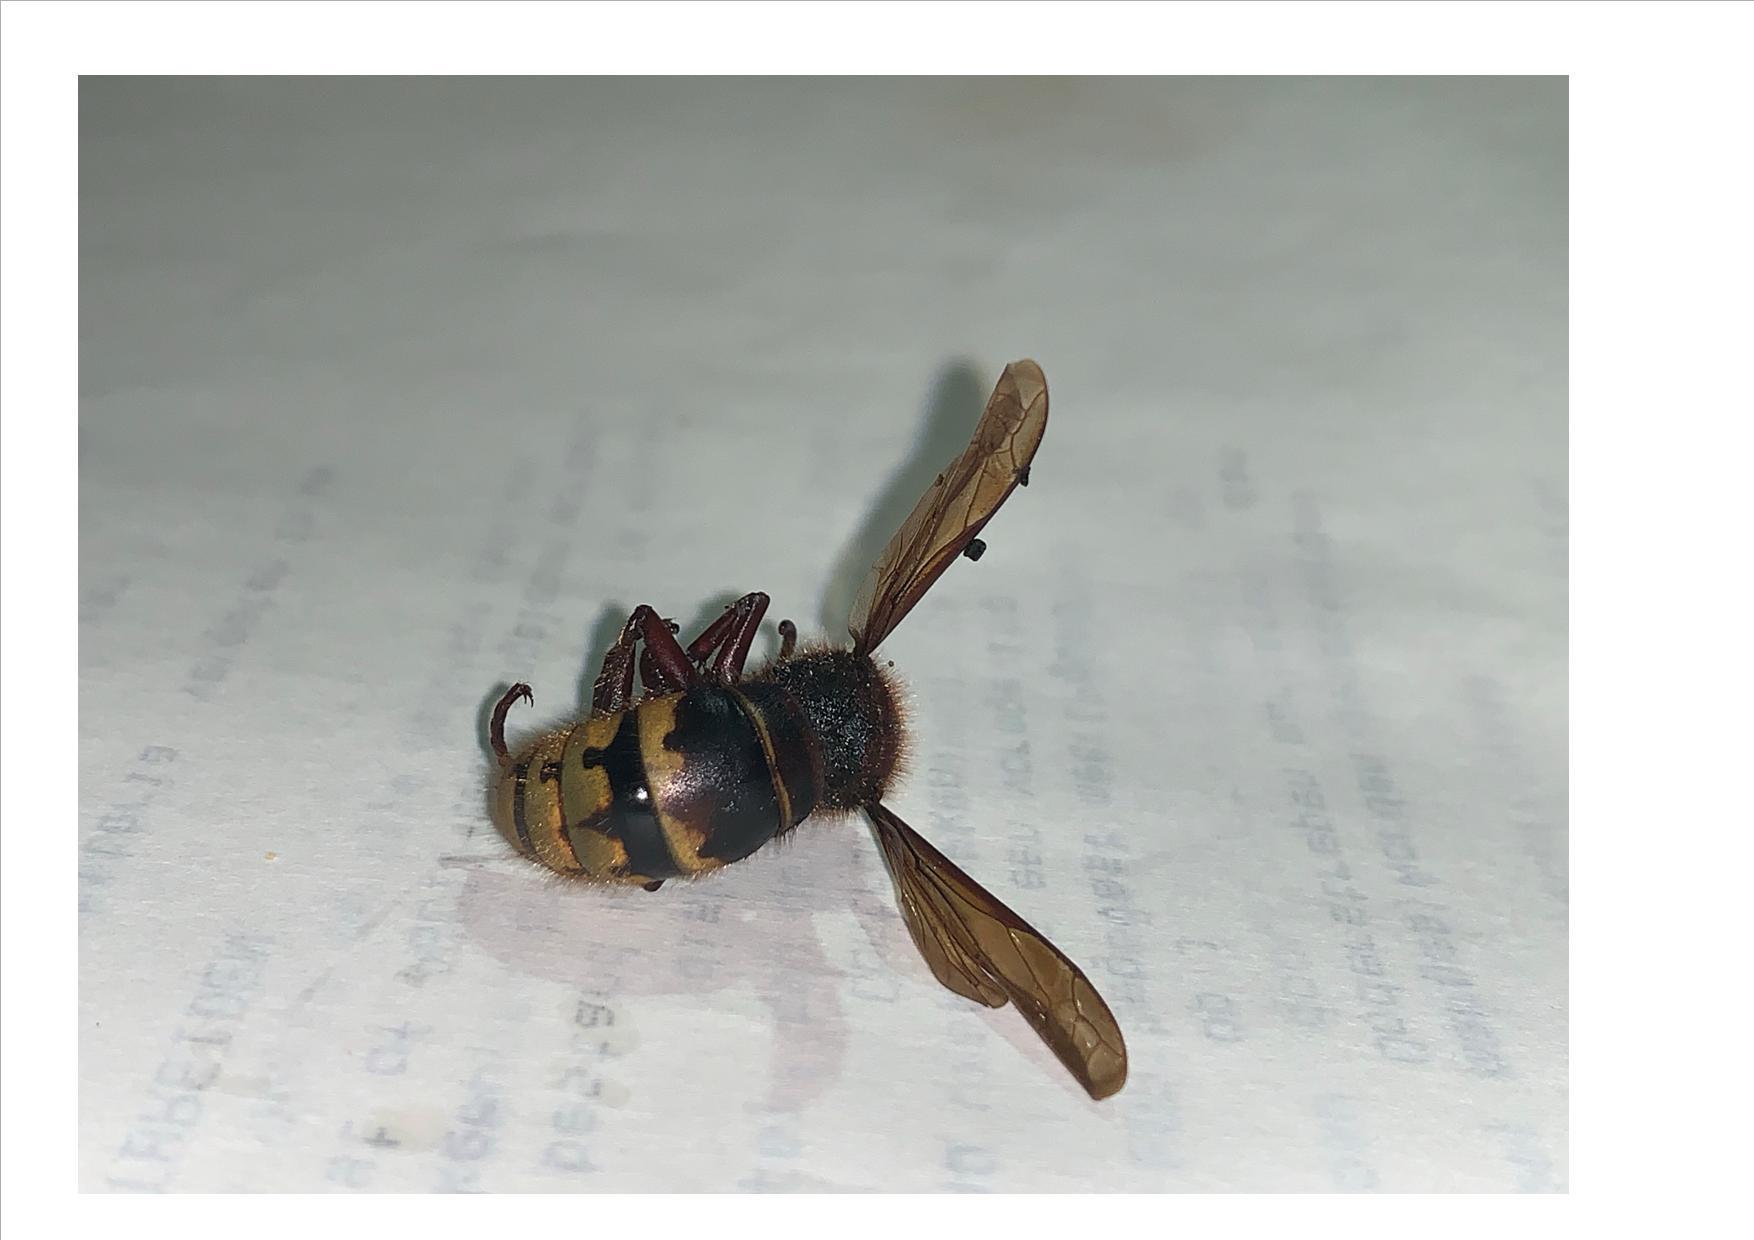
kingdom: Animalia
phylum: Arthropoda
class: Insecta
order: Hymenoptera
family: Vespidae
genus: Vespa
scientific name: Vespa crabro
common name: Hornet
